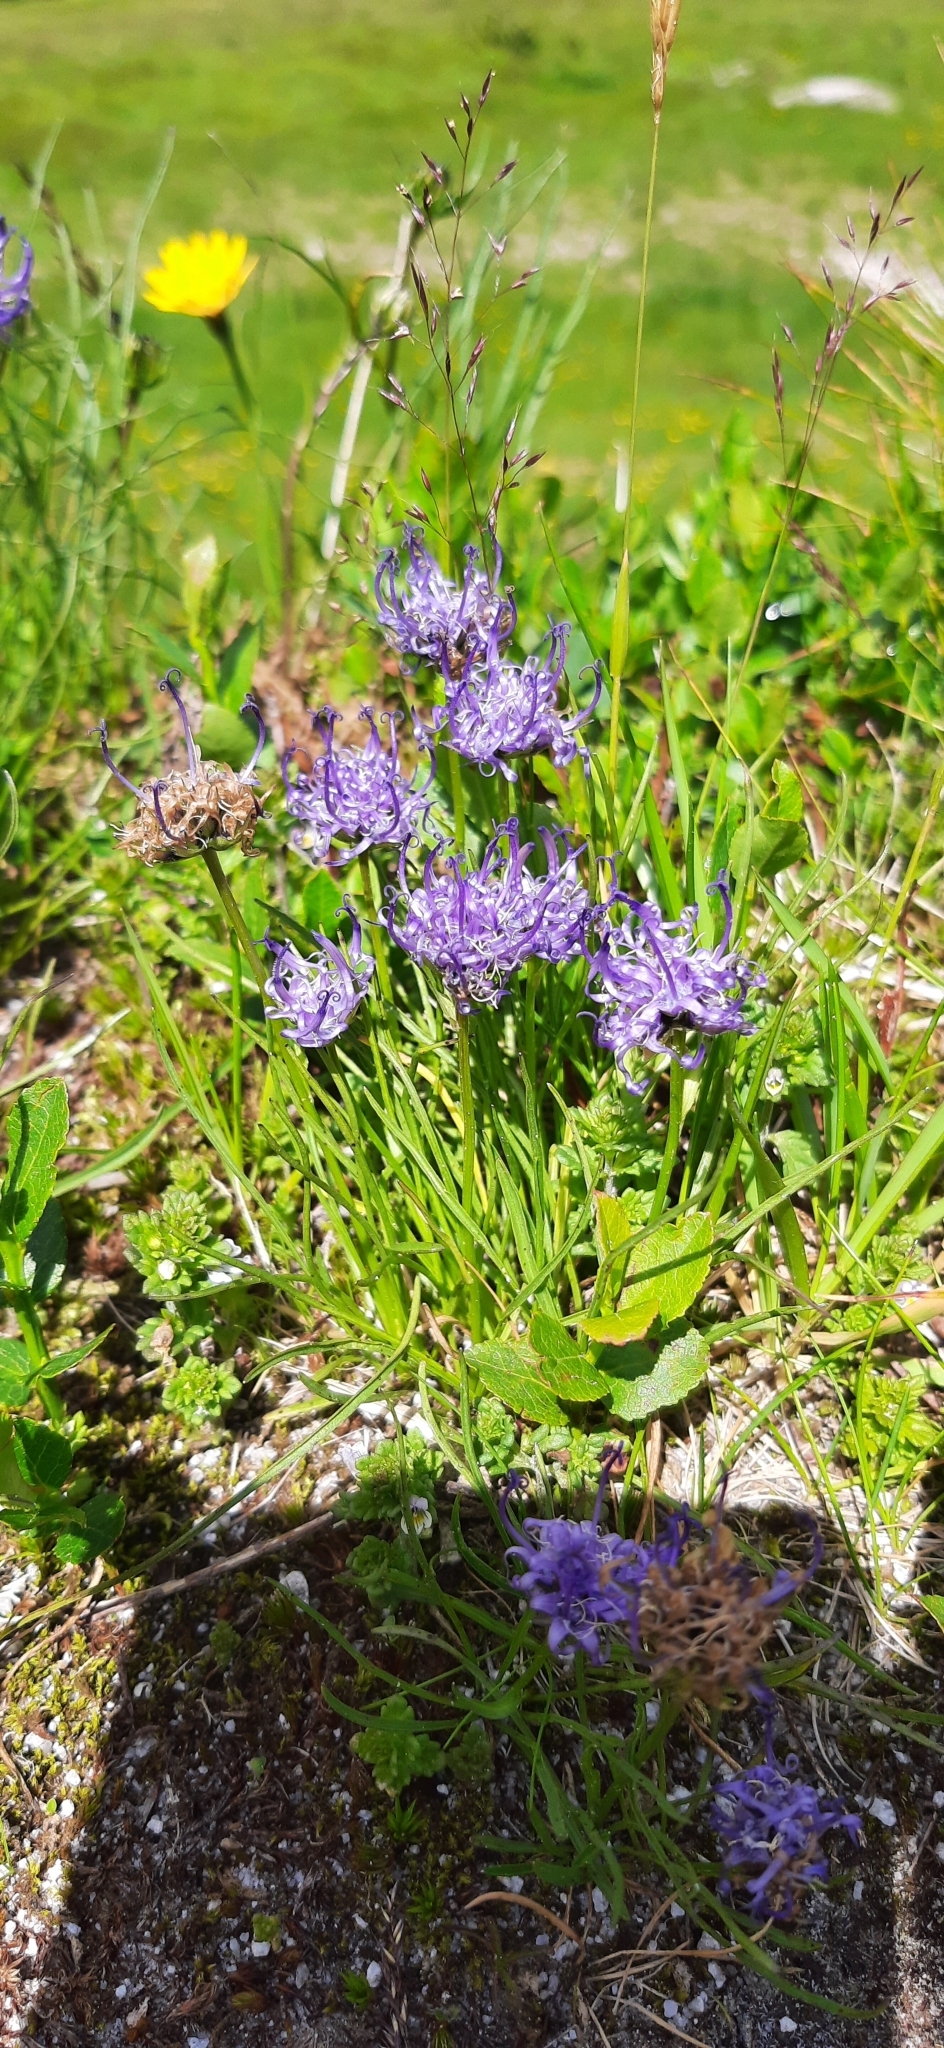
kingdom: Plantae
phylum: Tracheophyta
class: Magnoliopsida
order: Asterales
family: Campanulaceae
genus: Phyteuma
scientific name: Phyteuma hemisphaericum
